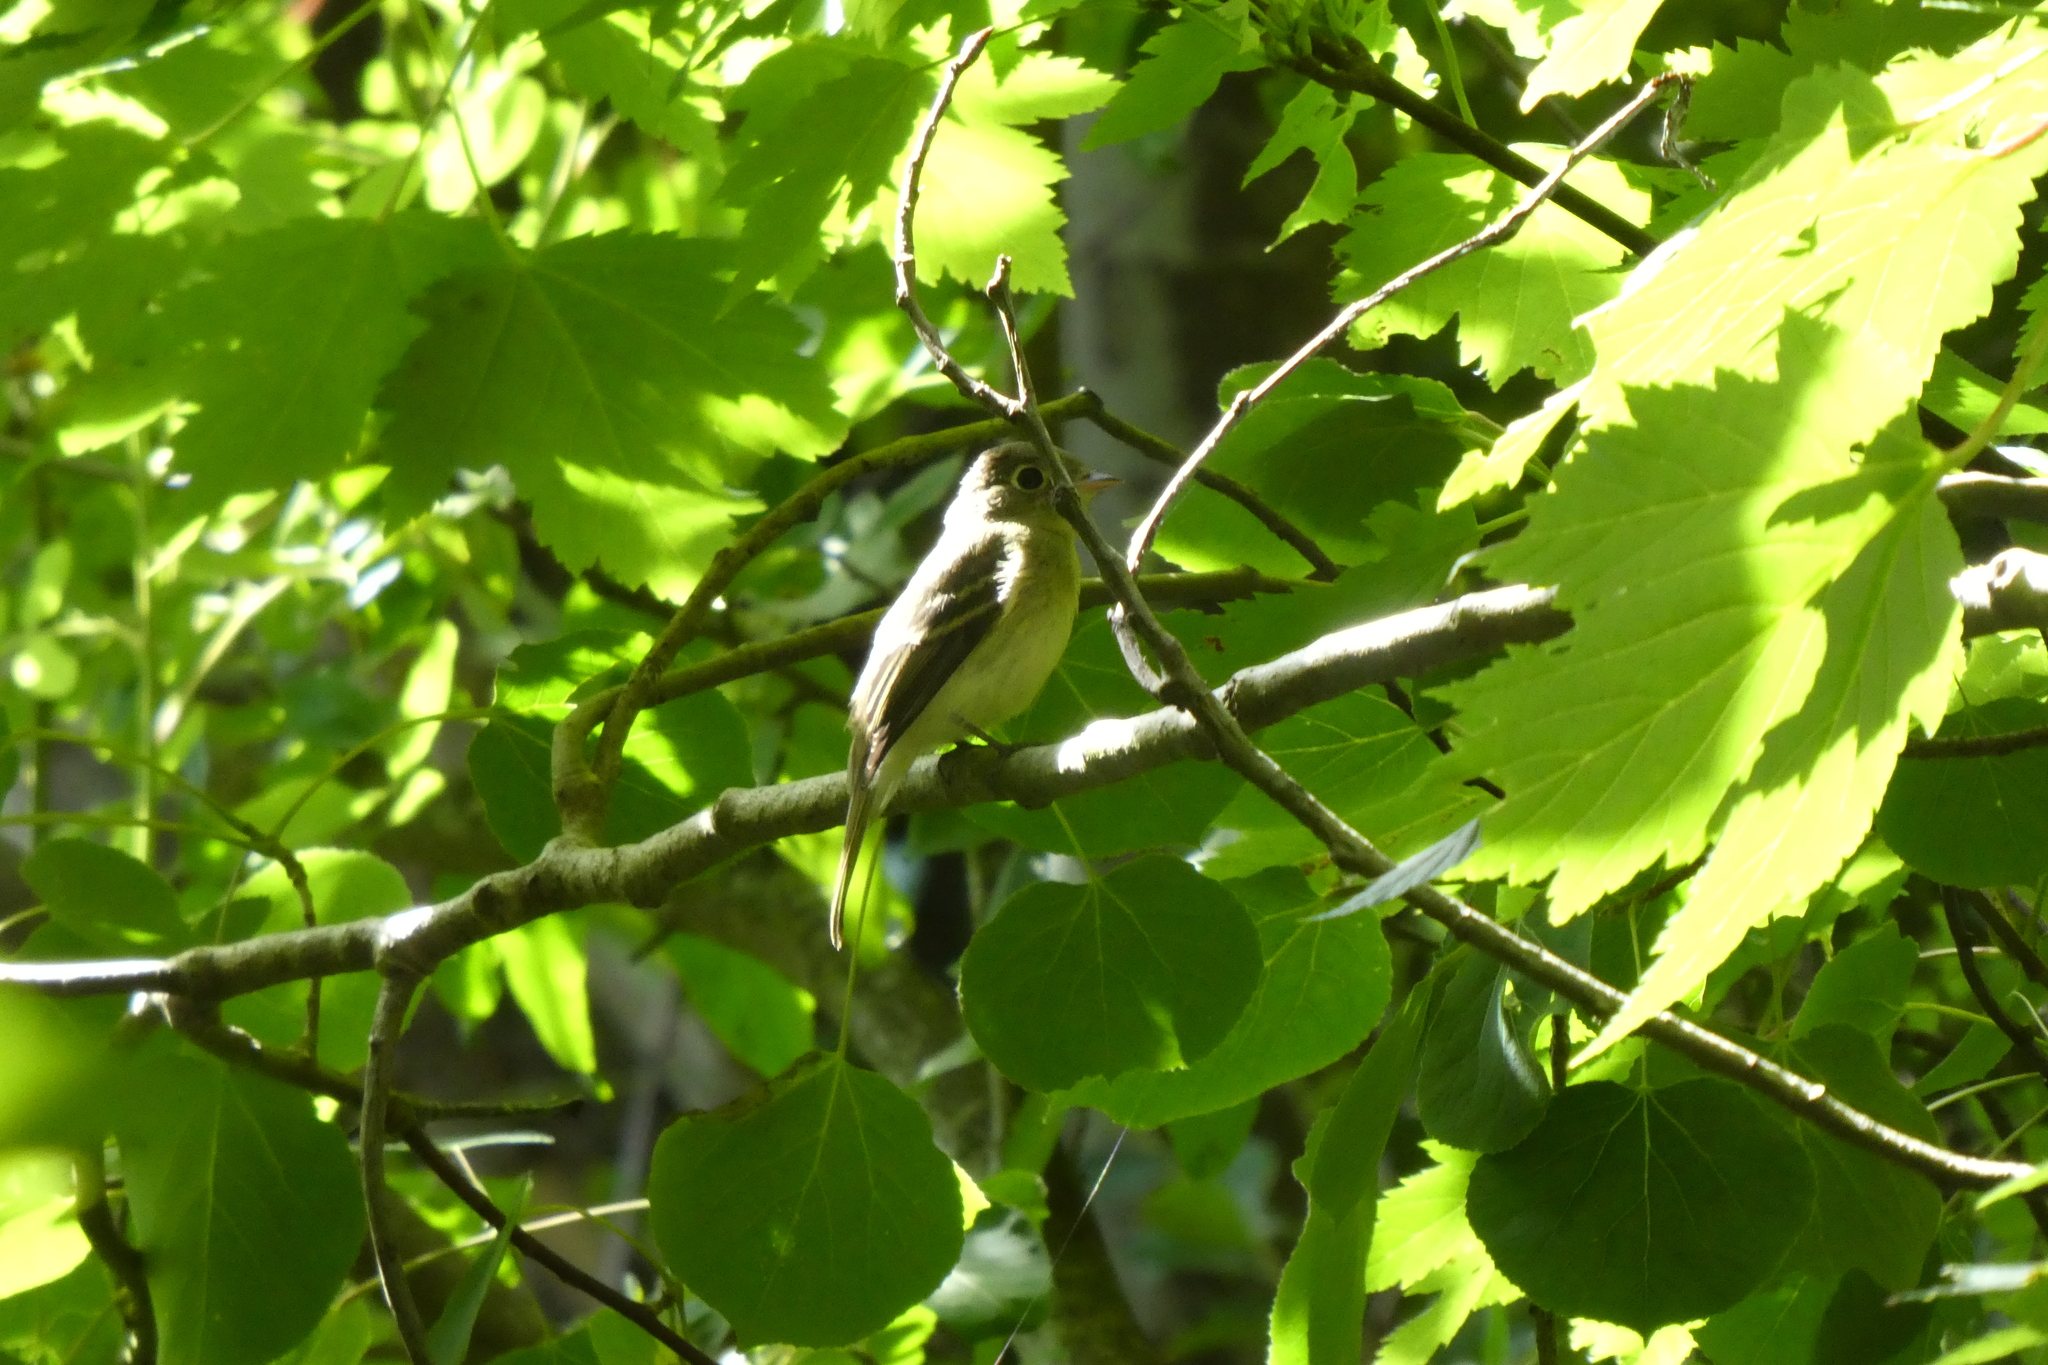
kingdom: Animalia
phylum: Chordata
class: Aves
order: Passeriformes
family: Tyrannidae
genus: Empidonax
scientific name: Empidonax difficilis
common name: Pacific-slope flycatcher
